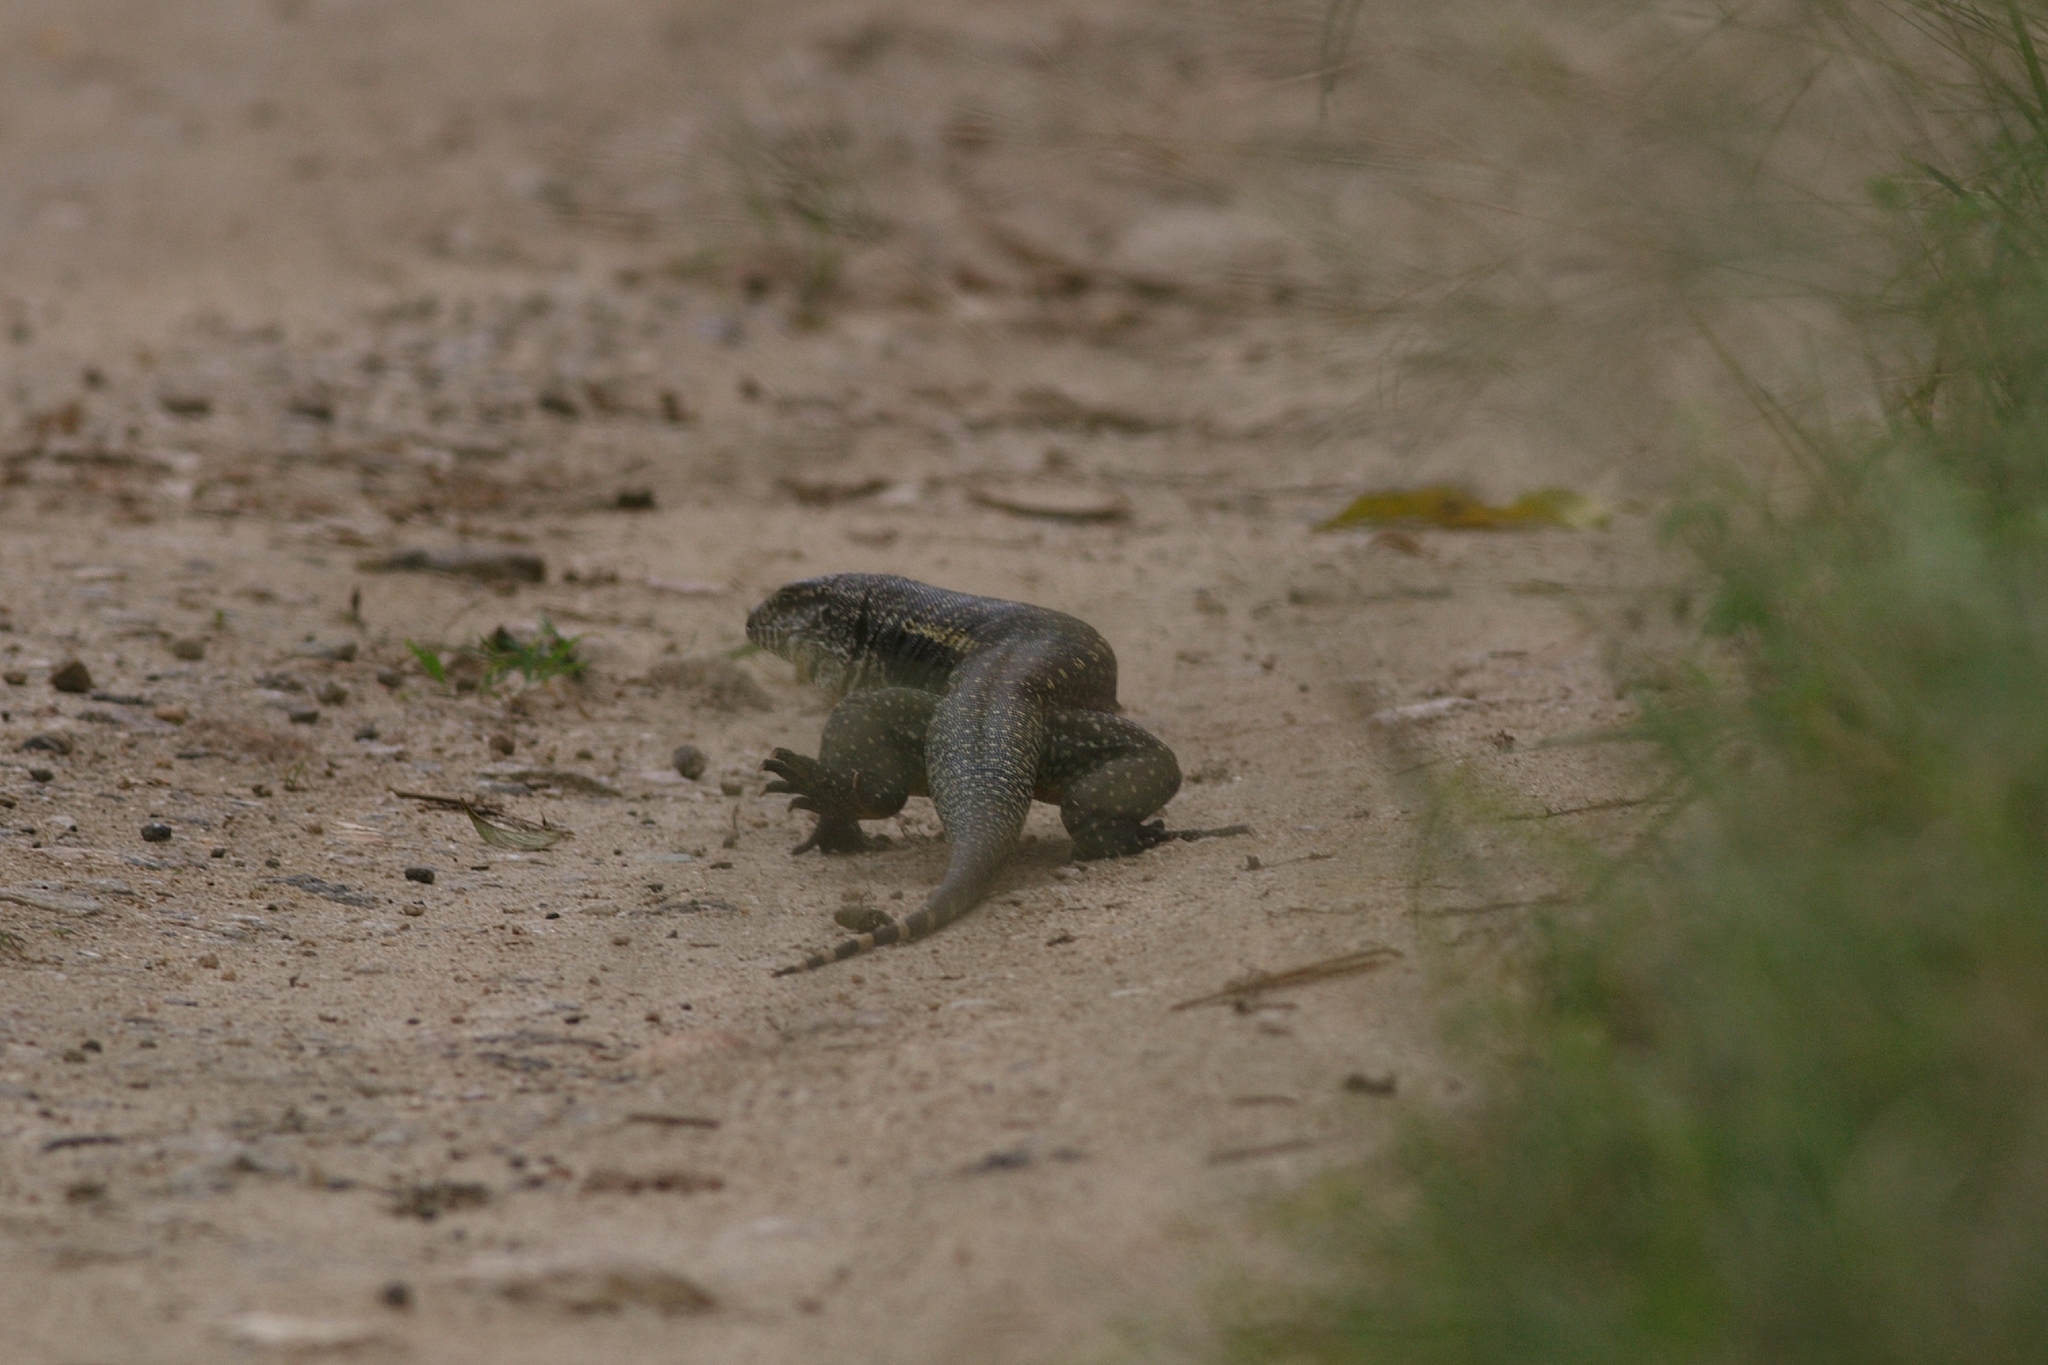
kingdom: Animalia
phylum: Chordata
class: Squamata
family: Teiidae
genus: Salvator
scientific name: Salvator merianae
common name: Argentine black and white tegu
